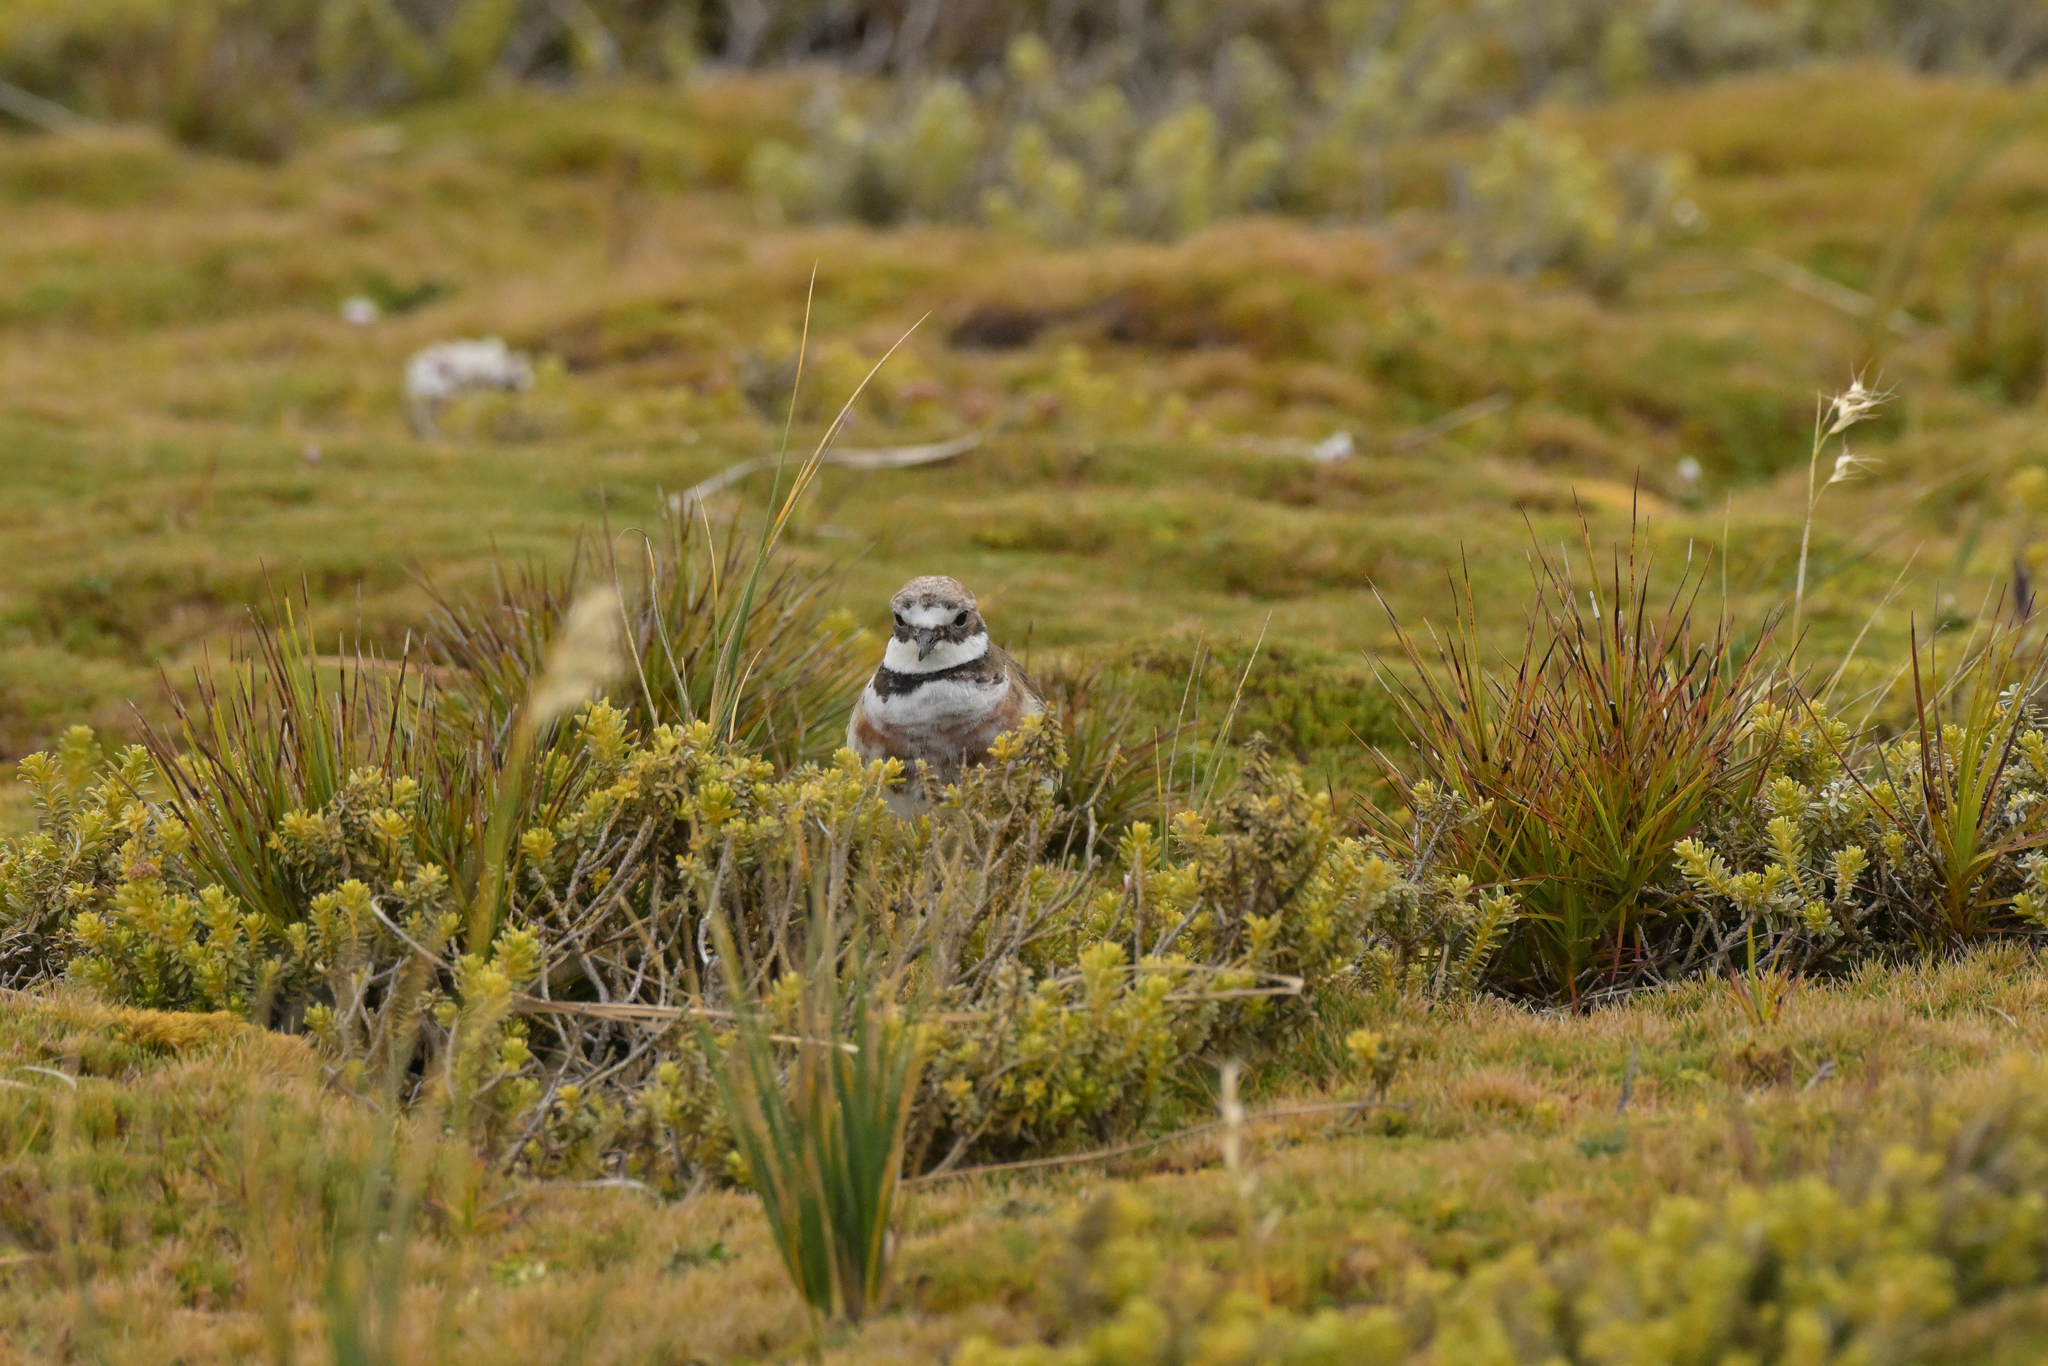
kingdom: Animalia
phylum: Chordata
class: Aves
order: Charadriiformes
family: Charadriidae
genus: Anarhynchus
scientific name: Anarhynchus
